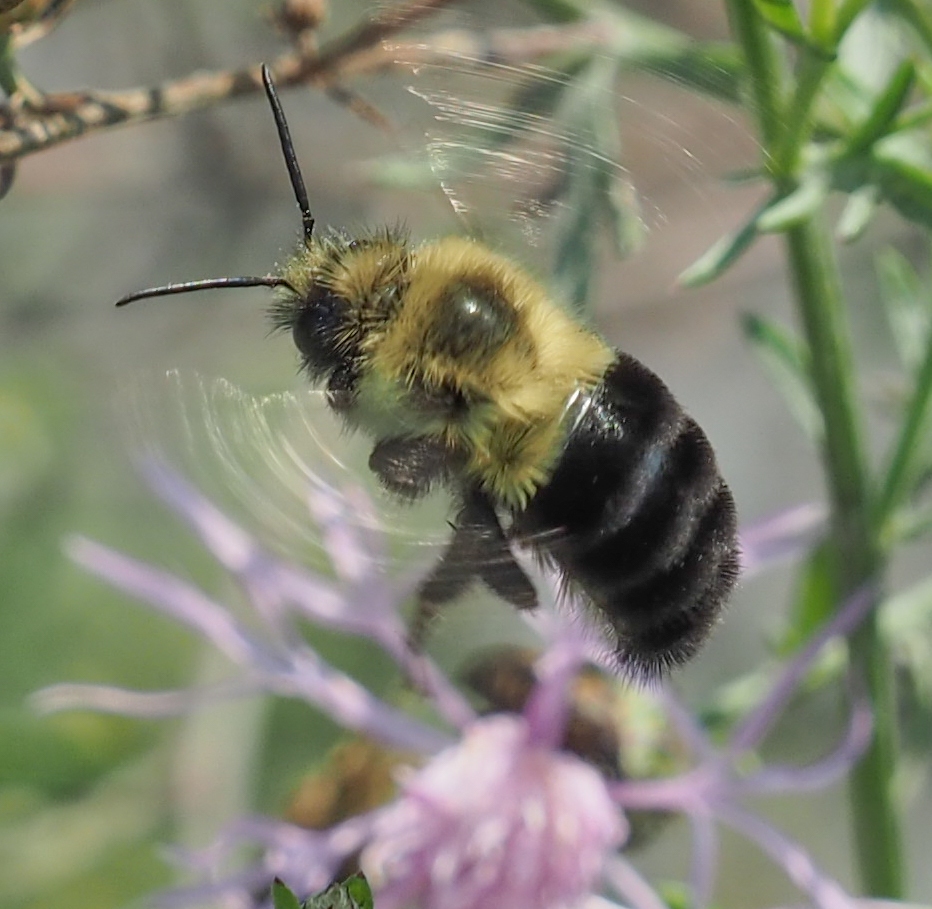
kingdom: Animalia
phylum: Arthropoda
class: Insecta
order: Hymenoptera
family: Apidae
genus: Bombus
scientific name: Bombus impatiens
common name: Common eastern bumble bee
